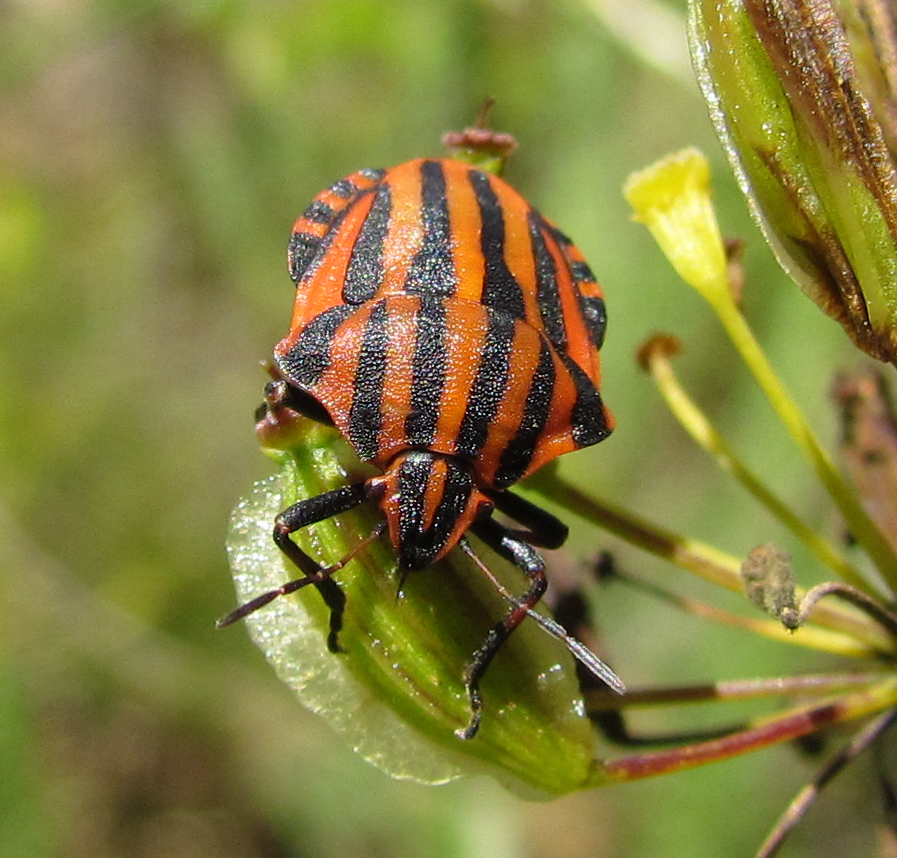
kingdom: Animalia
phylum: Arthropoda
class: Insecta
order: Hemiptera
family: Pentatomidae
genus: Graphosoma
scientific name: Graphosoma italicum
